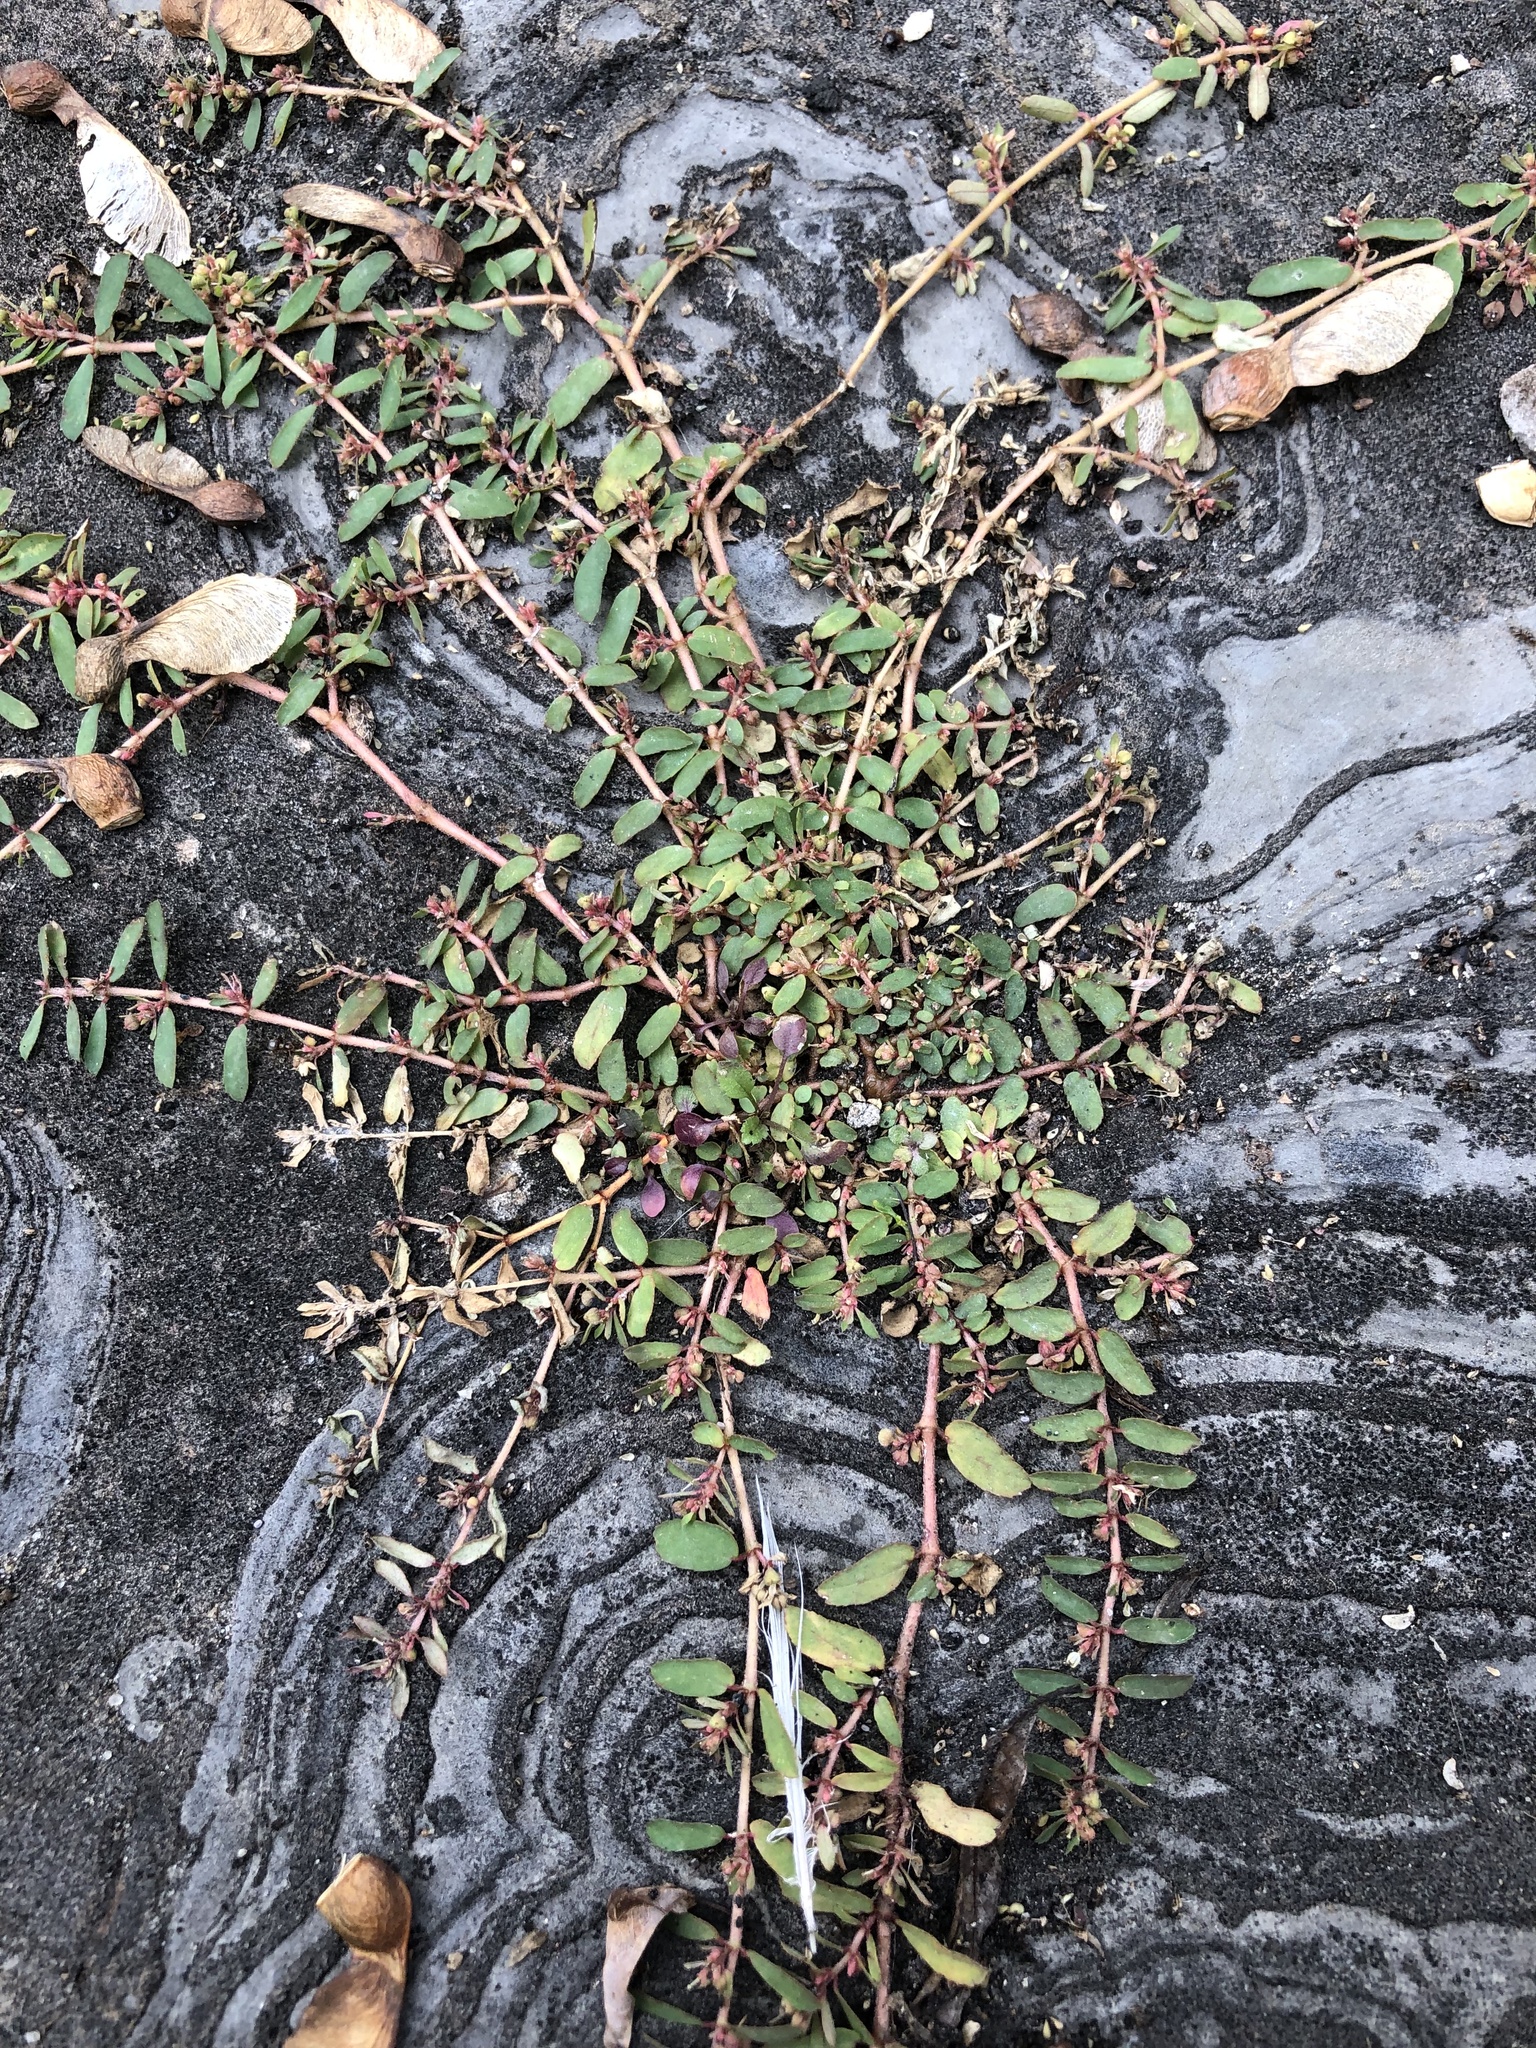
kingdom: Plantae
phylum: Tracheophyta
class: Magnoliopsida
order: Malpighiales
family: Euphorbiaceae
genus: Euphorbia
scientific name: Euphorbia maculata
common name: Spotted spurge
